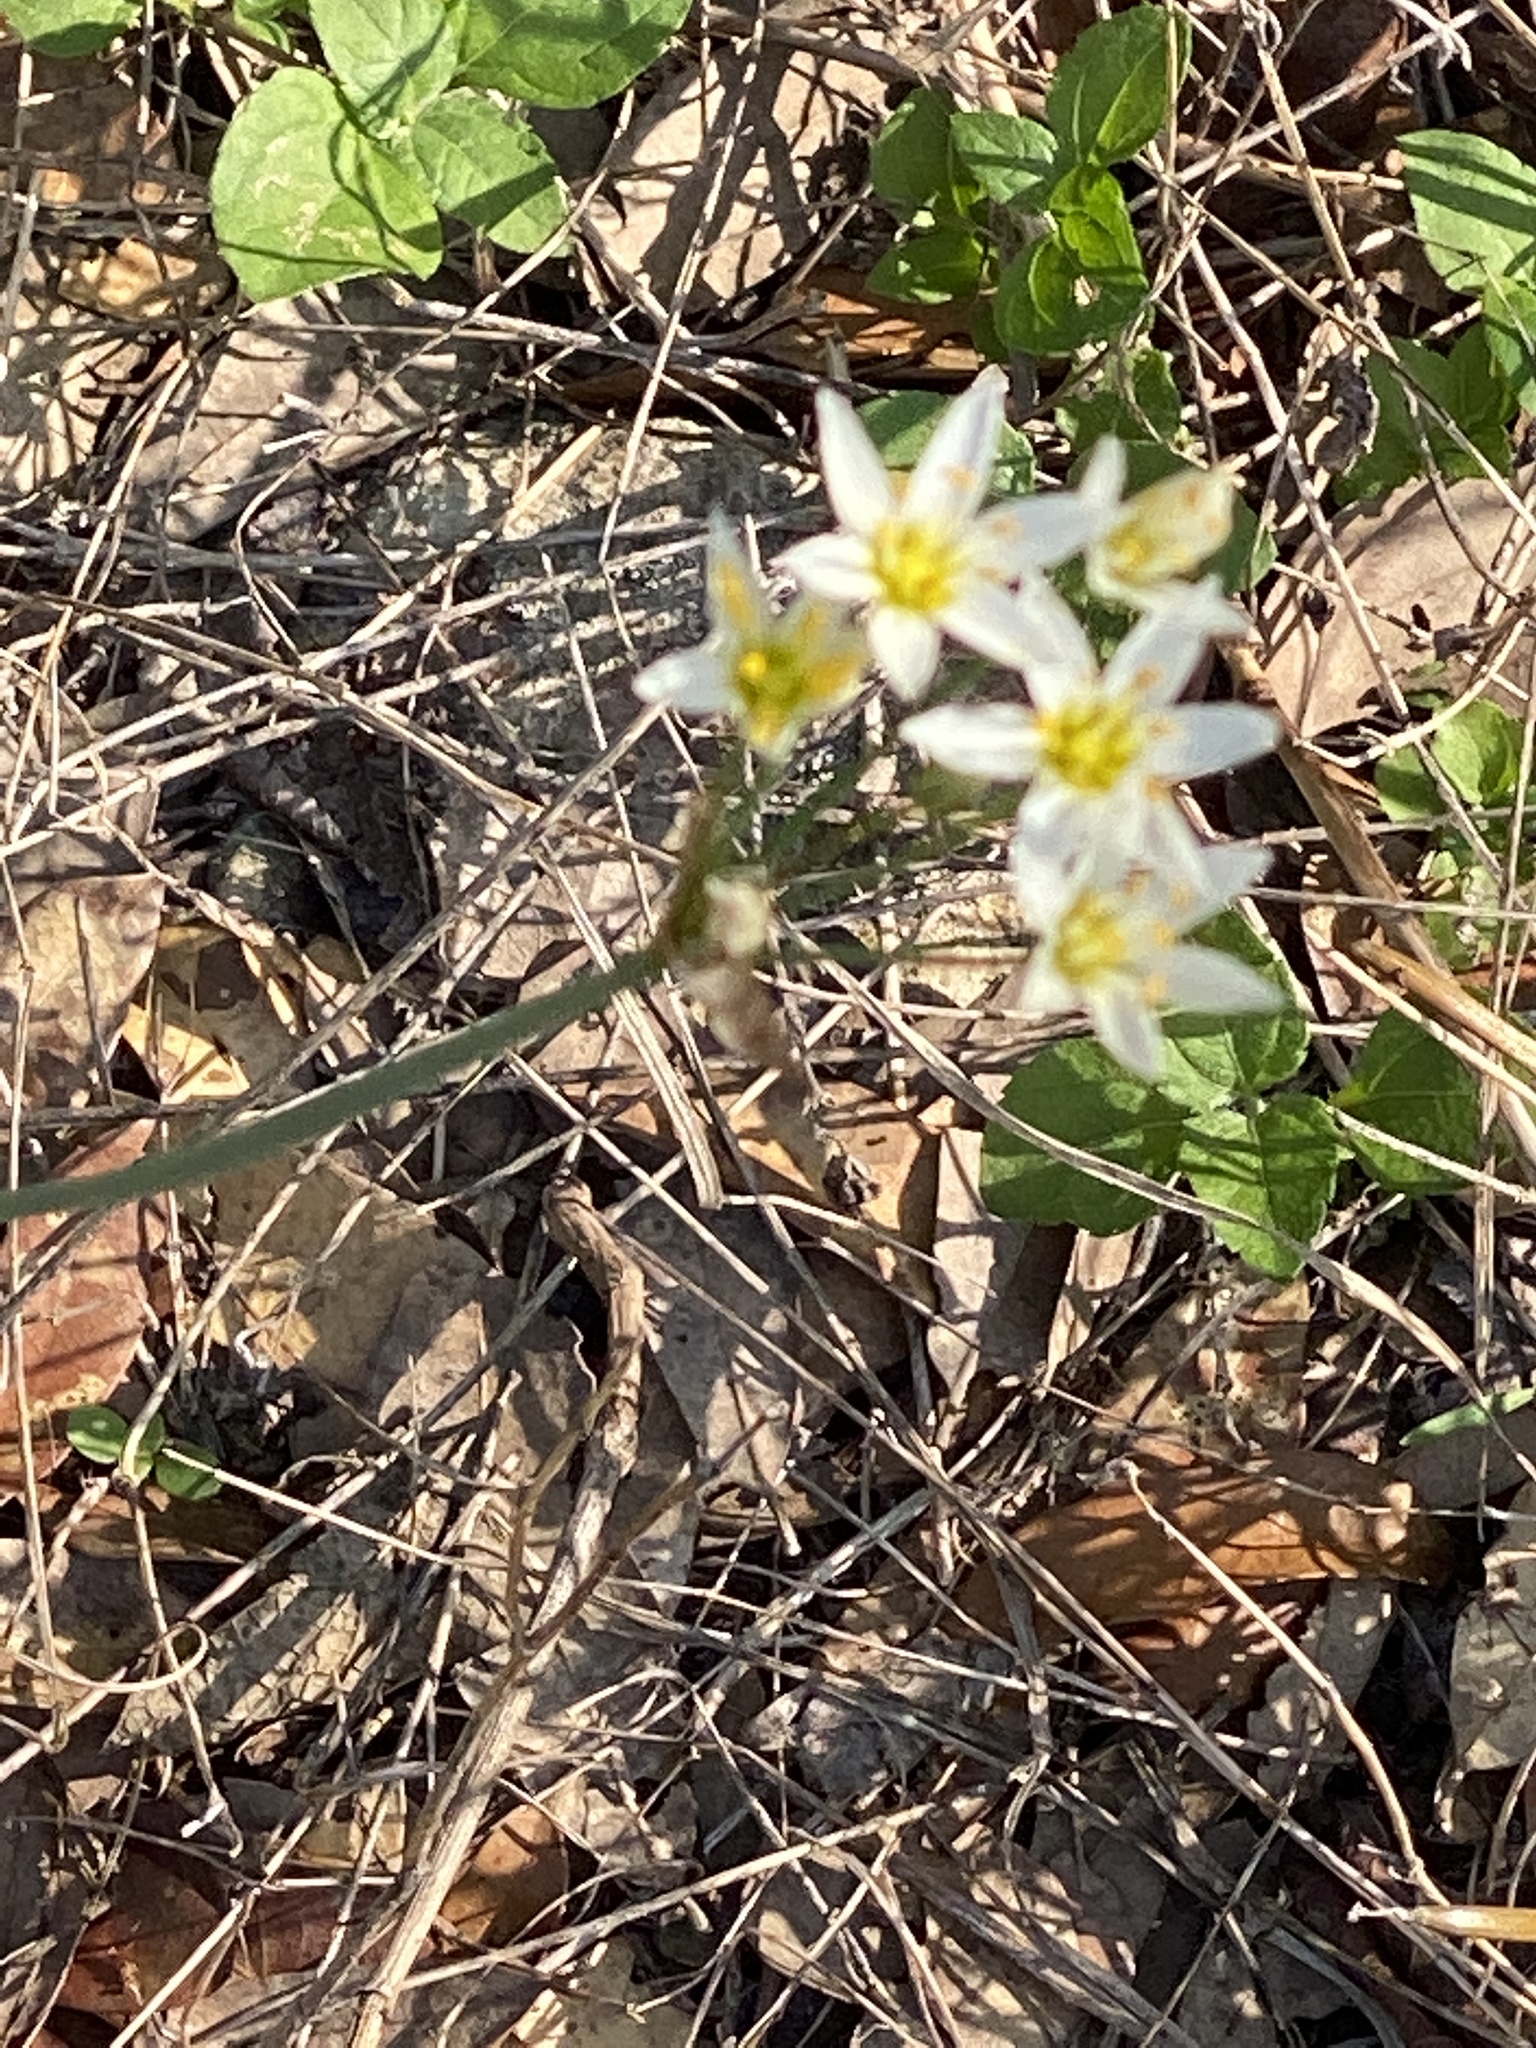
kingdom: Plantae
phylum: Tracheophyta
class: Liliopsida
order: Asparagales
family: Amaryllidaceae
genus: Nothoscordum
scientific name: Nothoscordum bivalve
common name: Crow-poison
